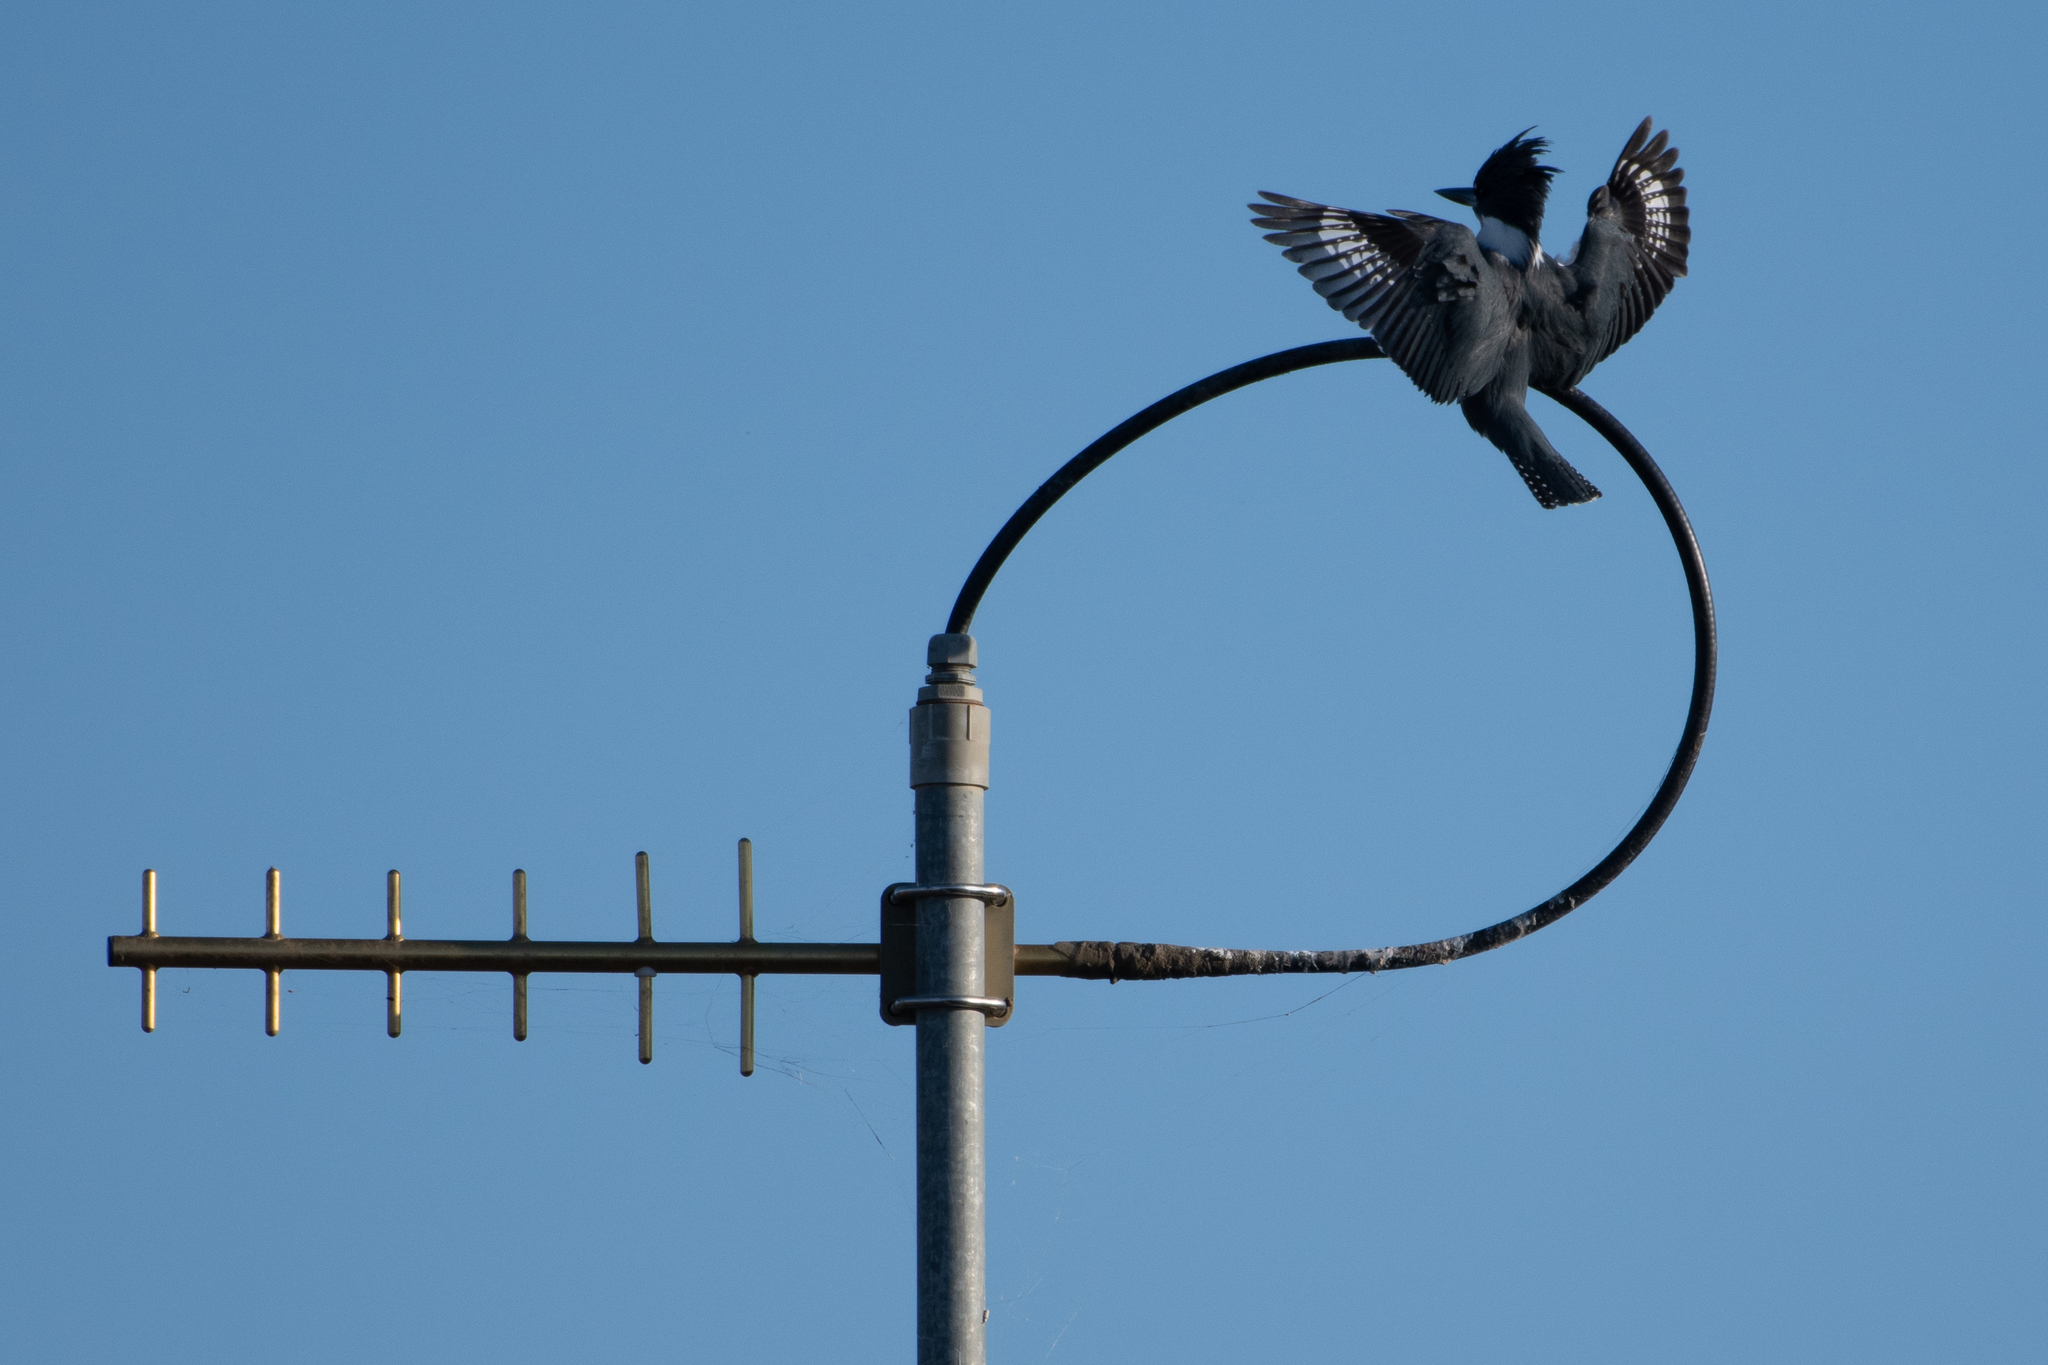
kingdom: Animalia
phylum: Chordata
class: Aves
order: Coraciiformes
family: Alcedinidae
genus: Megaceryle
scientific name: Megaceryle alcyon
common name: Belted kingfisher
